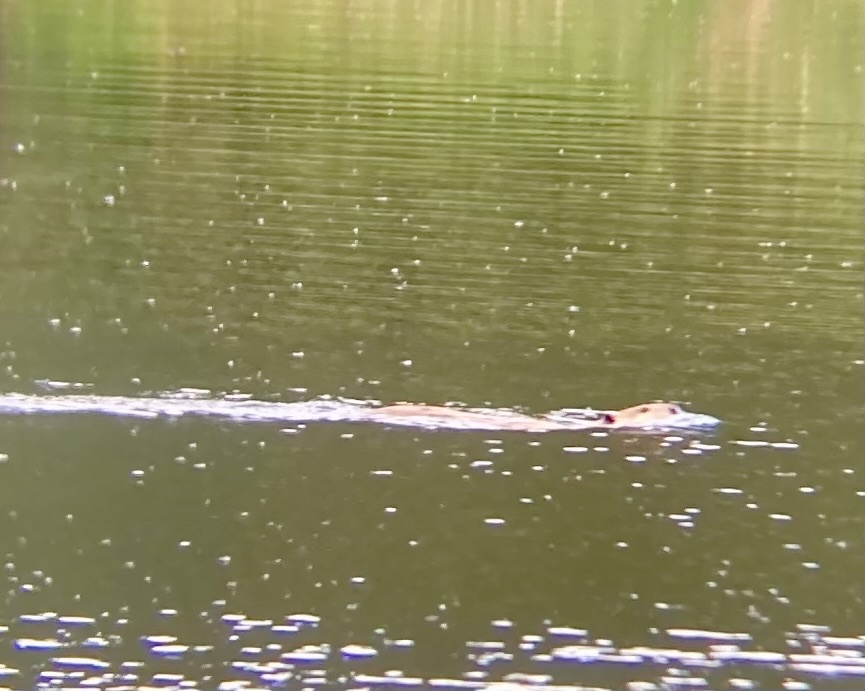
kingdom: Animalia
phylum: Chordata
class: Mammalia
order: Rodentia
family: Castoridae
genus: Castor
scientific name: Castor canadensis
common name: American beaver
